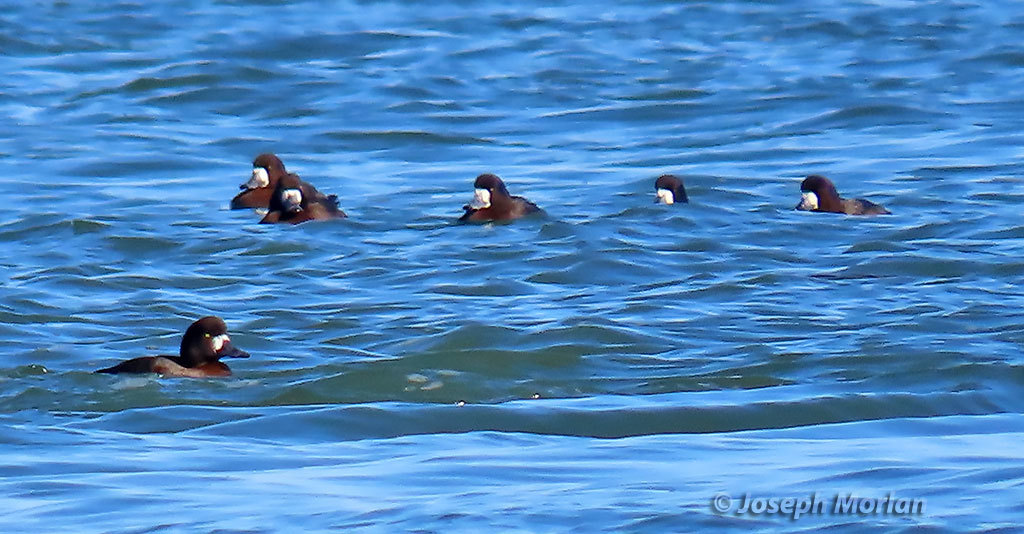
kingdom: Animalia
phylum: Chordata
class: Aves
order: Anseriformes
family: Anatidae
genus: Aythya
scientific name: Aythya marila
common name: Greater scaup
